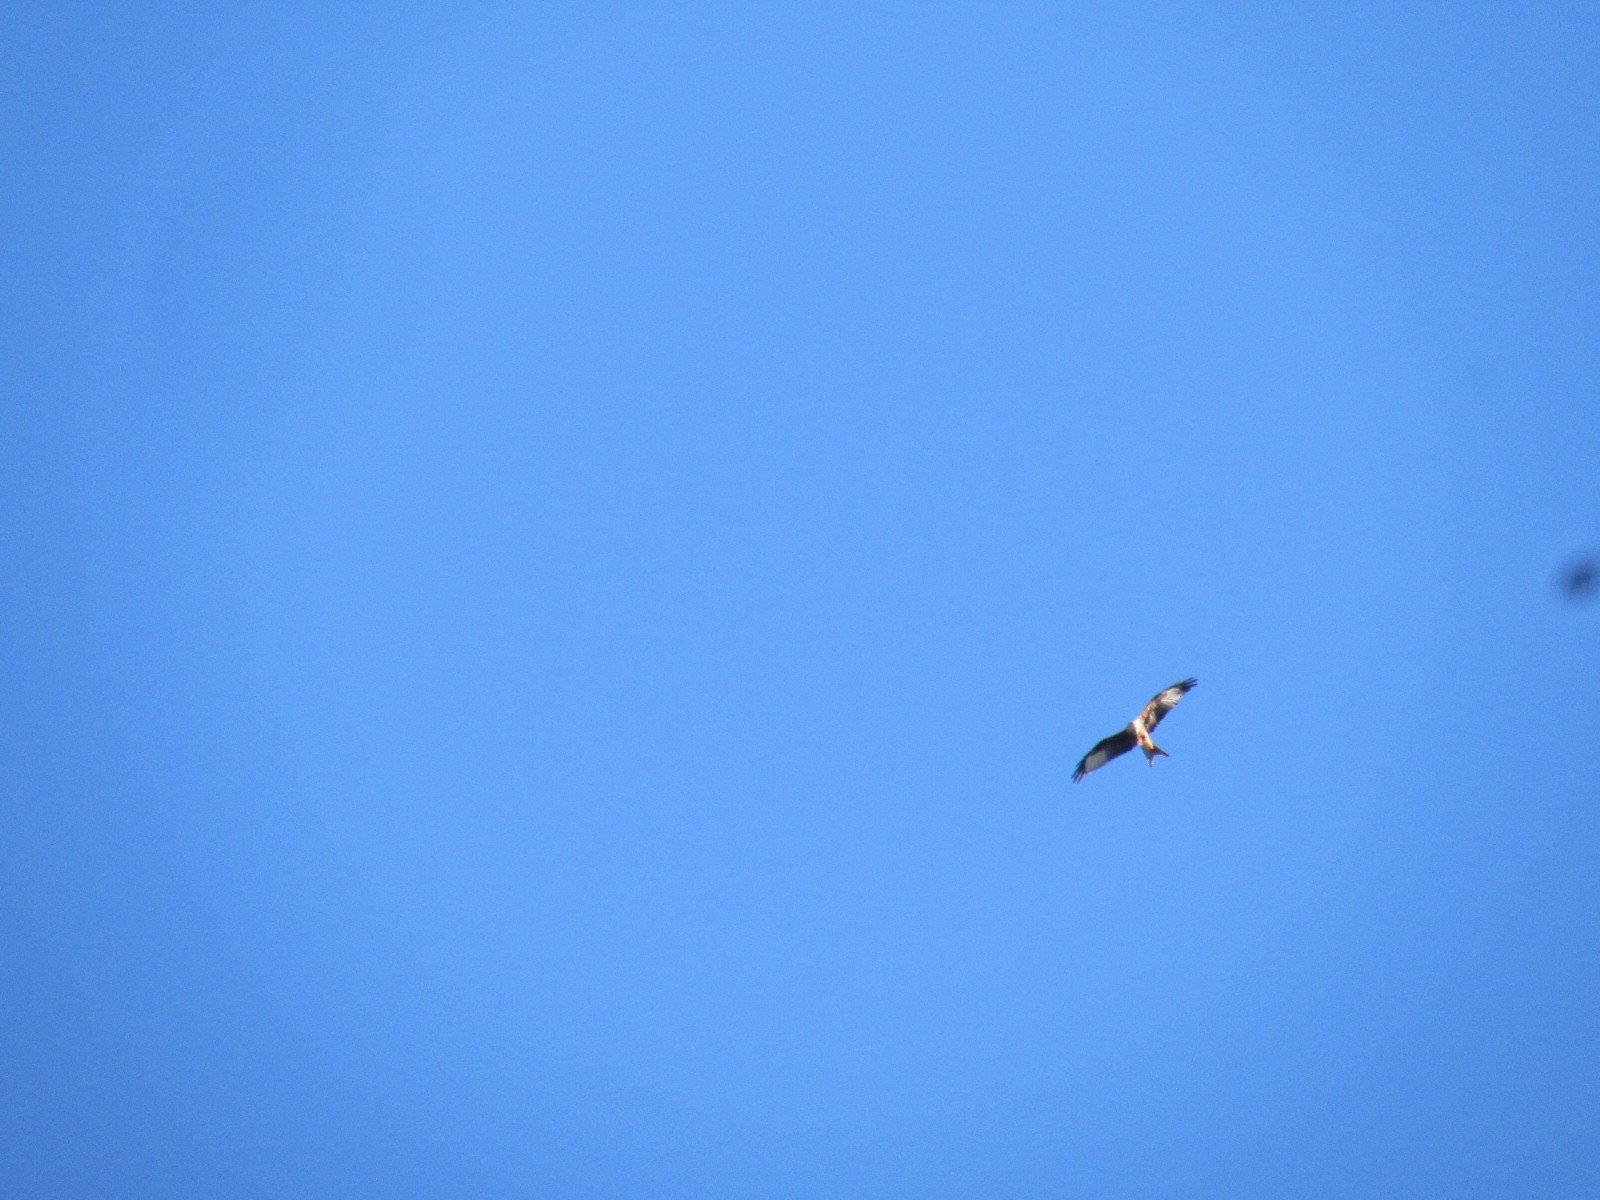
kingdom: Animalia
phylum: Chordata
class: Aves
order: Accipitriformes
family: Accipitridae
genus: Milvus
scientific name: Milvus milvus
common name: Red kite
